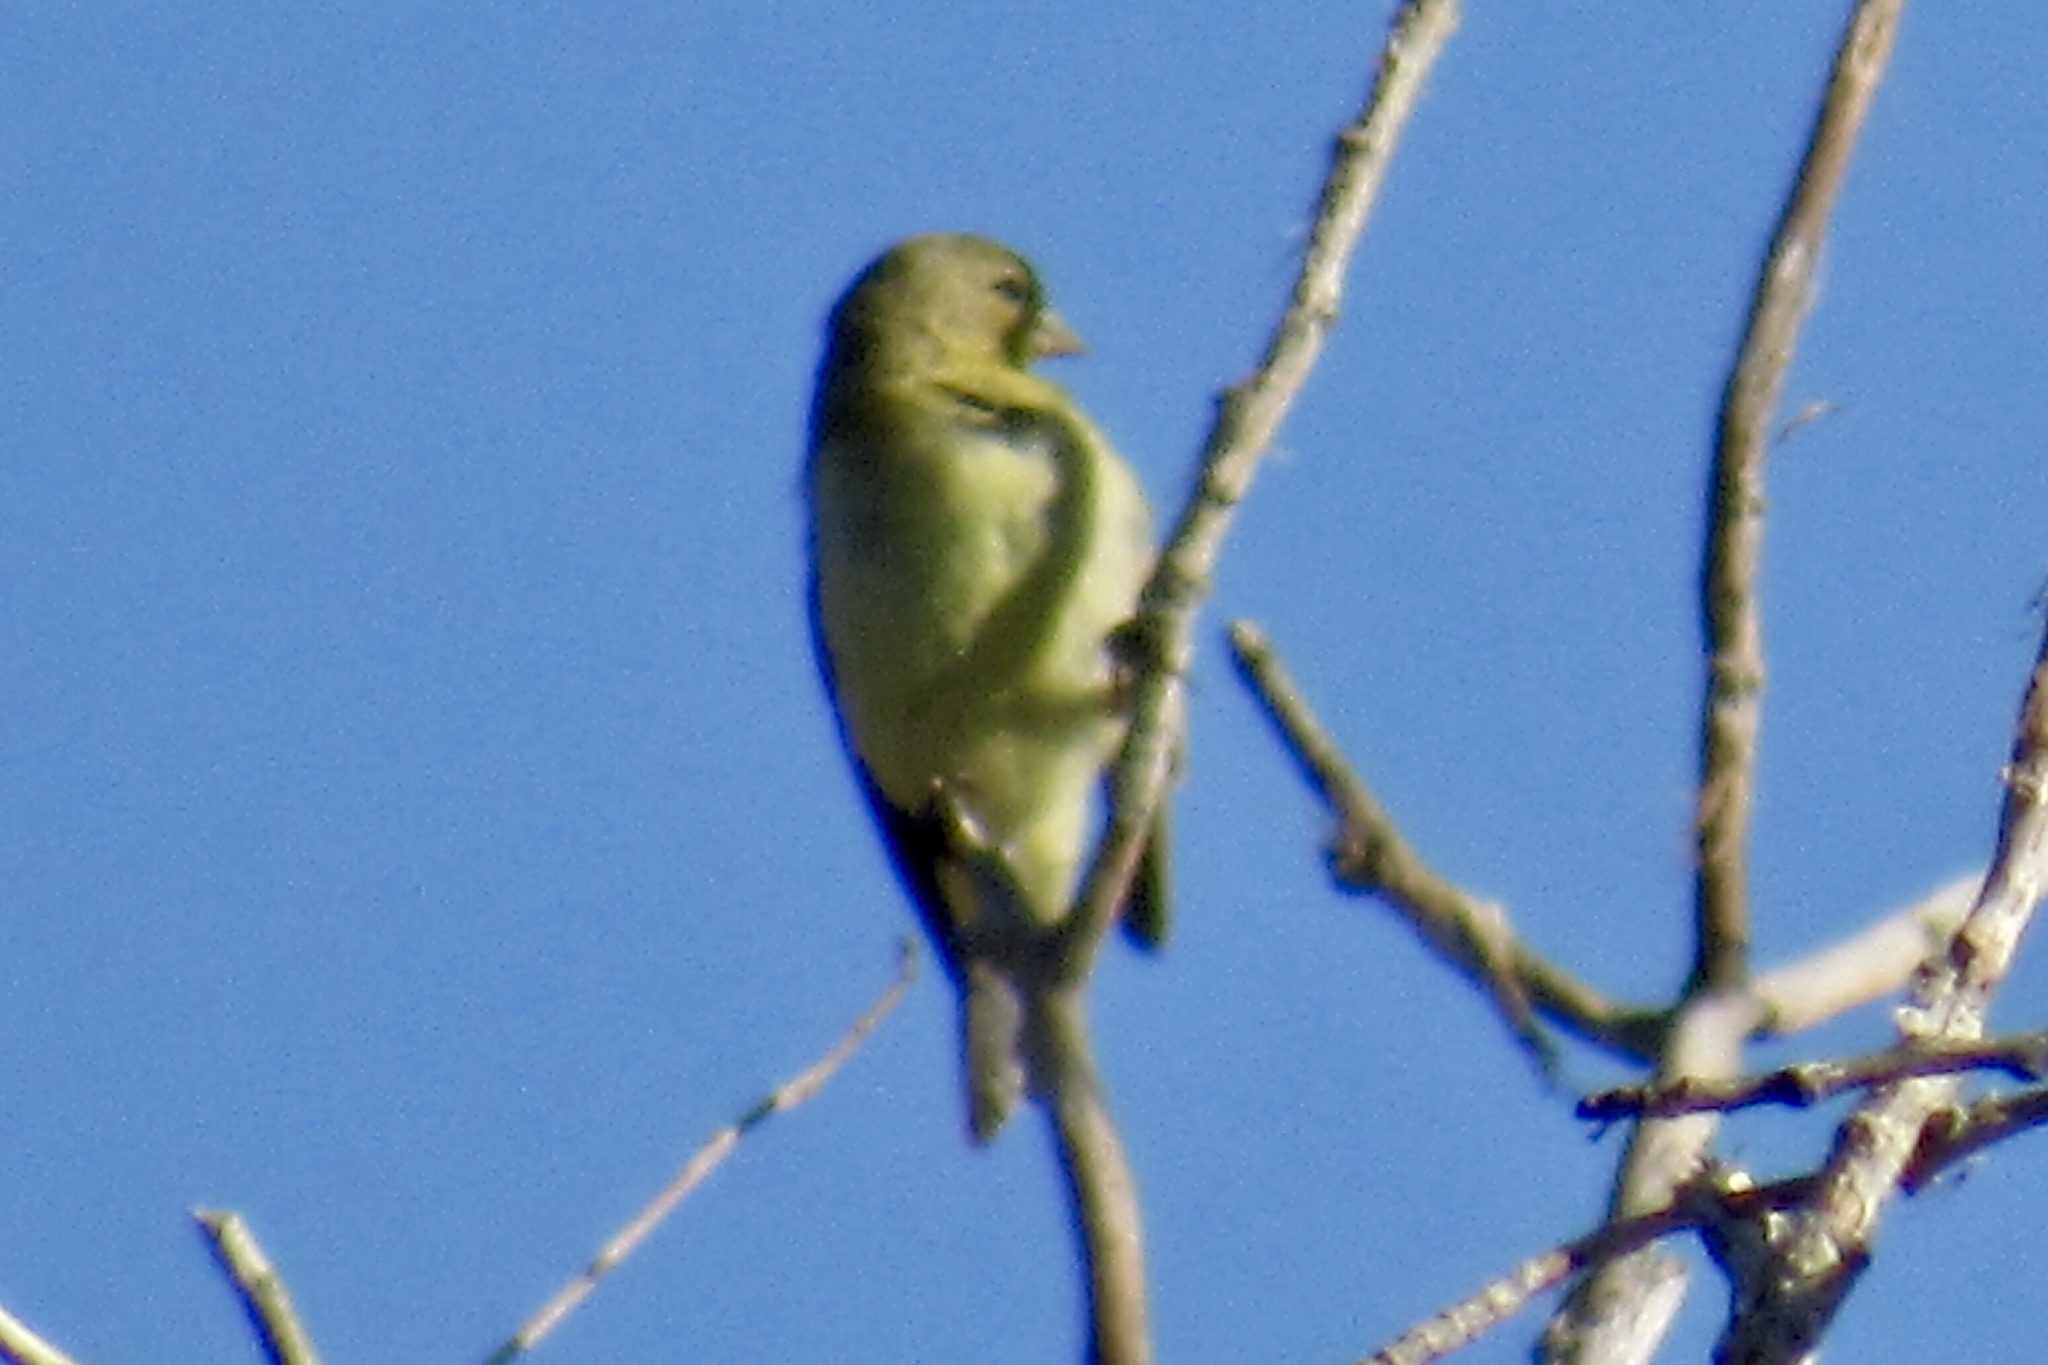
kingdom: Animalia
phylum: Chordata
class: Aves
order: Passeriformes
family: Fringillidae
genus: Spinus
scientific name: Spinus psaltria
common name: Lesser goldfinch
